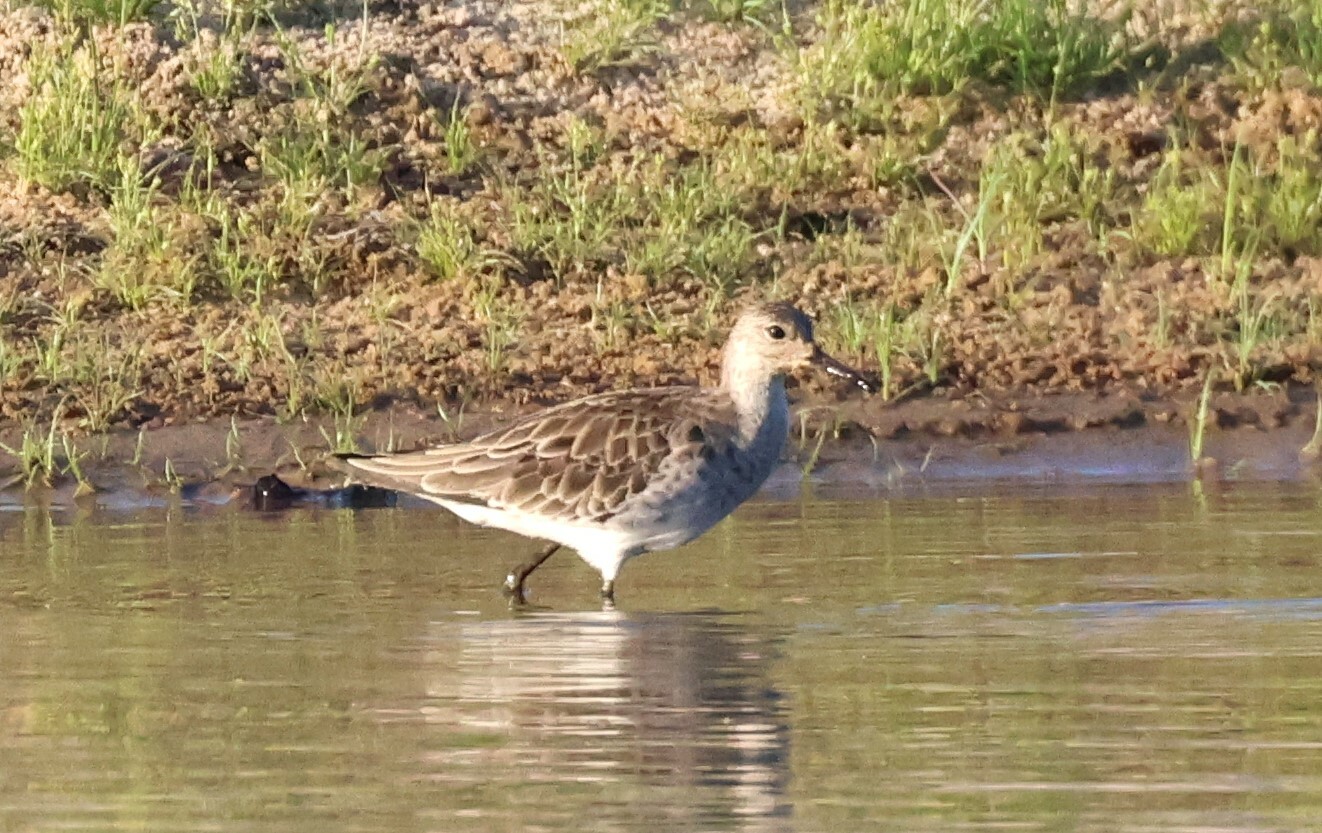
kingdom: Animalia
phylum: Chordata
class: Aves
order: Charadriiformes
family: Scolopacidae
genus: Calidris
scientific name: Calidris pugnax
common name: Ruff
